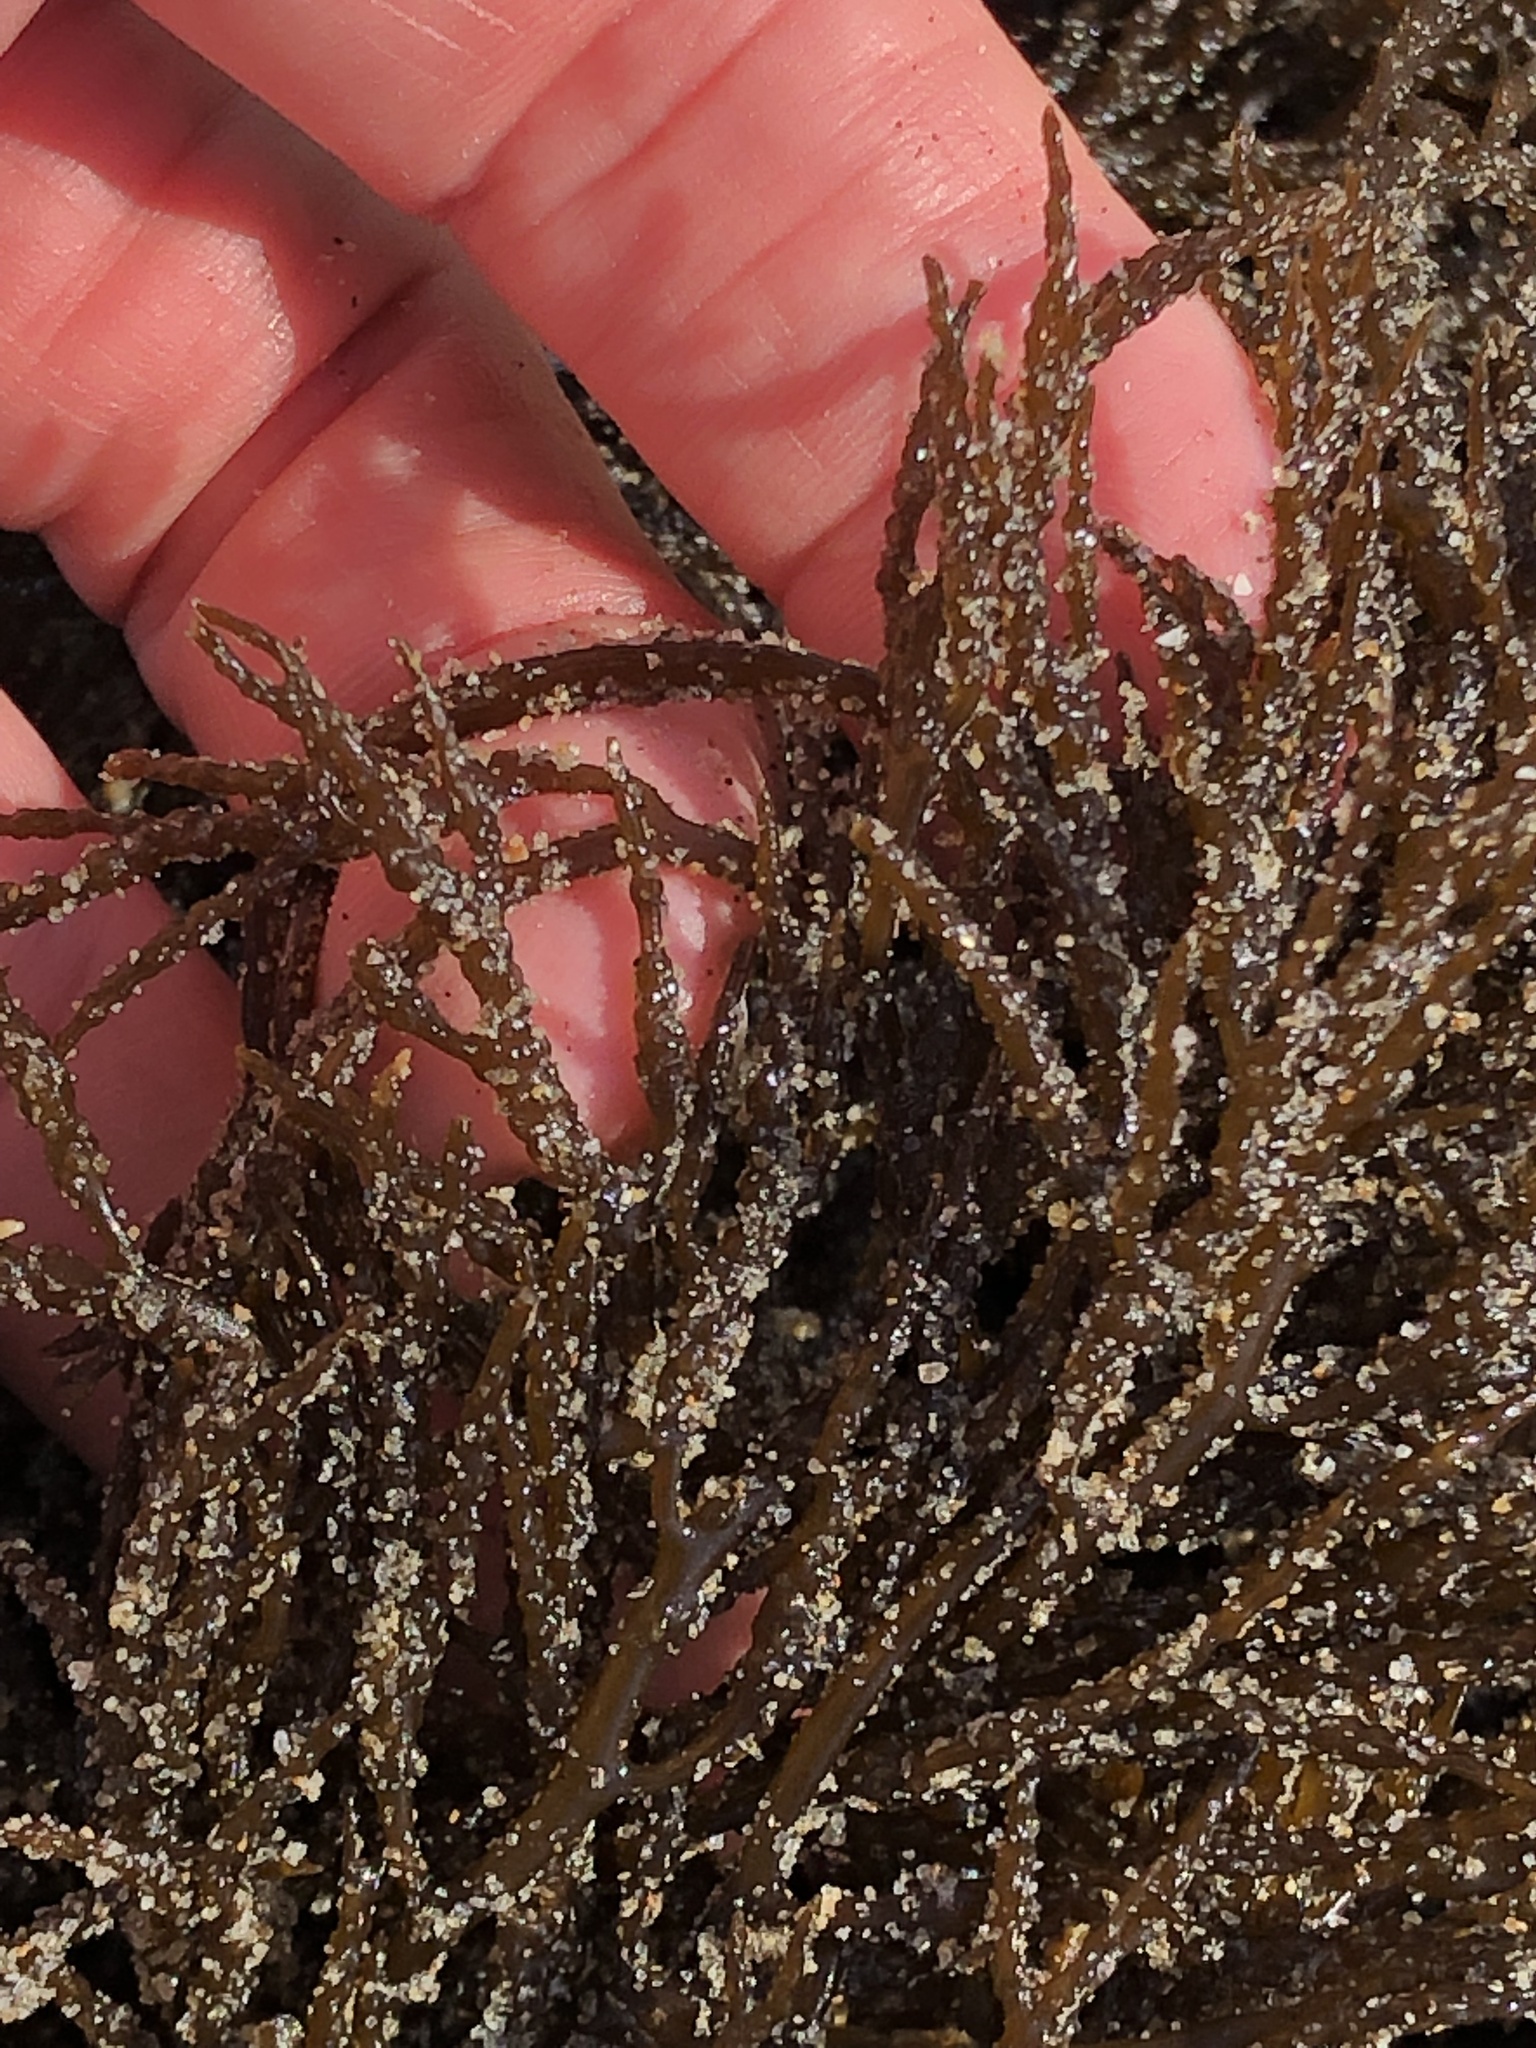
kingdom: Chromista
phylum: Ochrophyta
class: Phaeophyceae
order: Fucales
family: Sargassaceae
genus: Stephanocystis
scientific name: Stephanocystis
